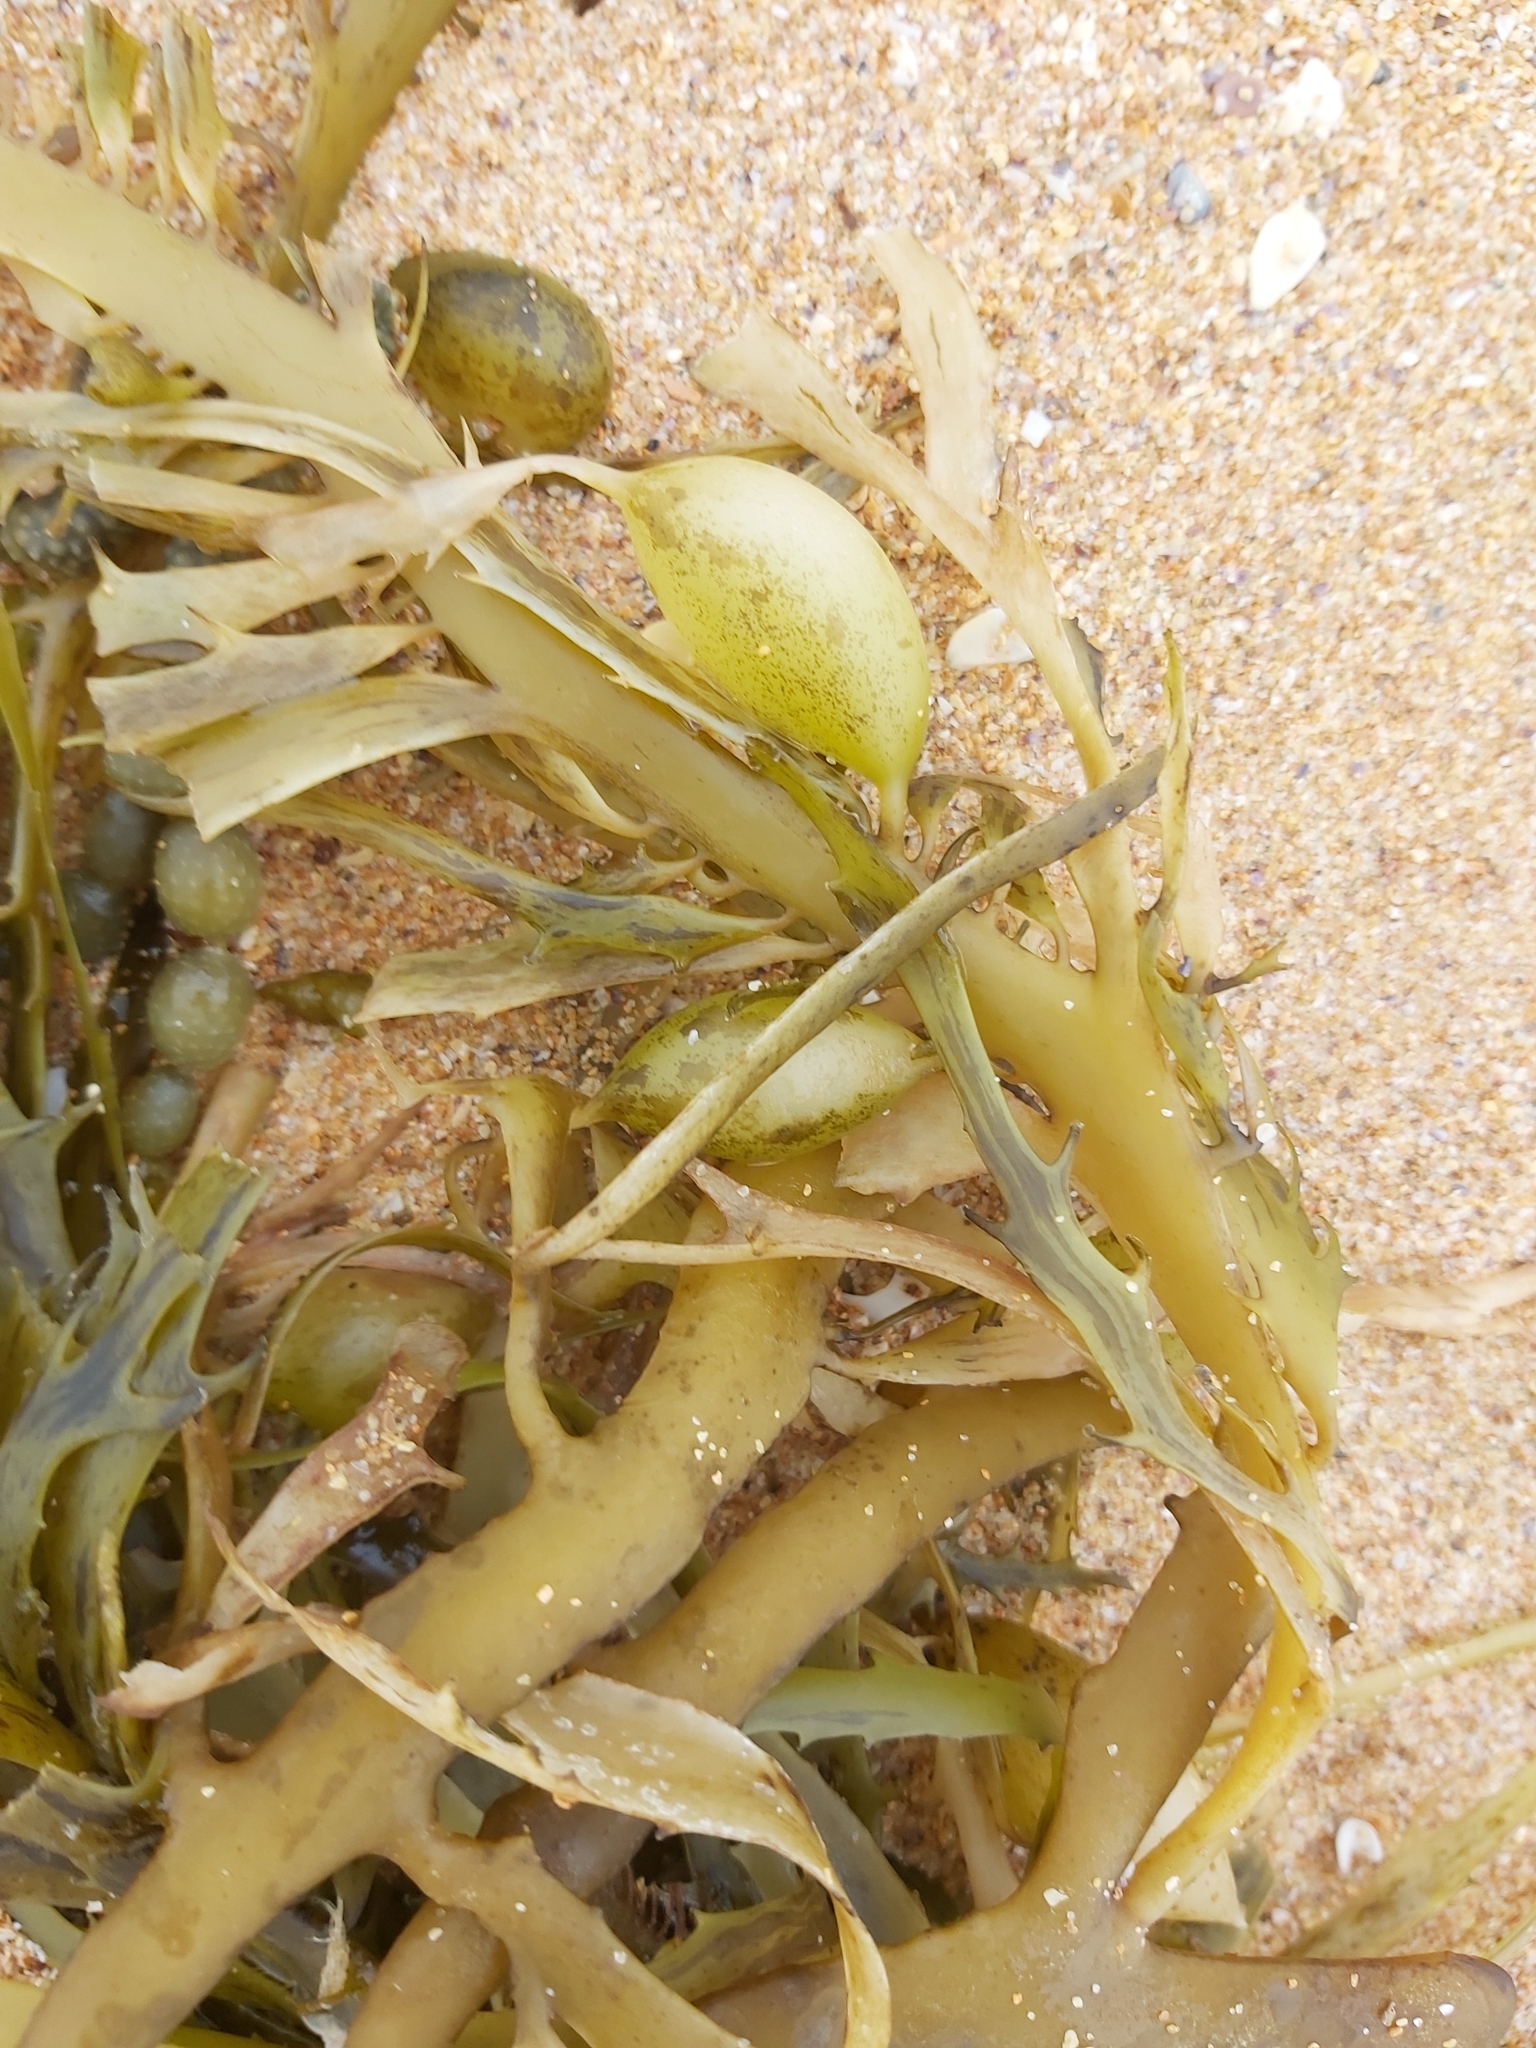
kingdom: Chromista
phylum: Ochrophyta
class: Phaeophyceae
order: Fucales
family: Seirococcaceae
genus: Phyllospora
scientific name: Phyllospora
